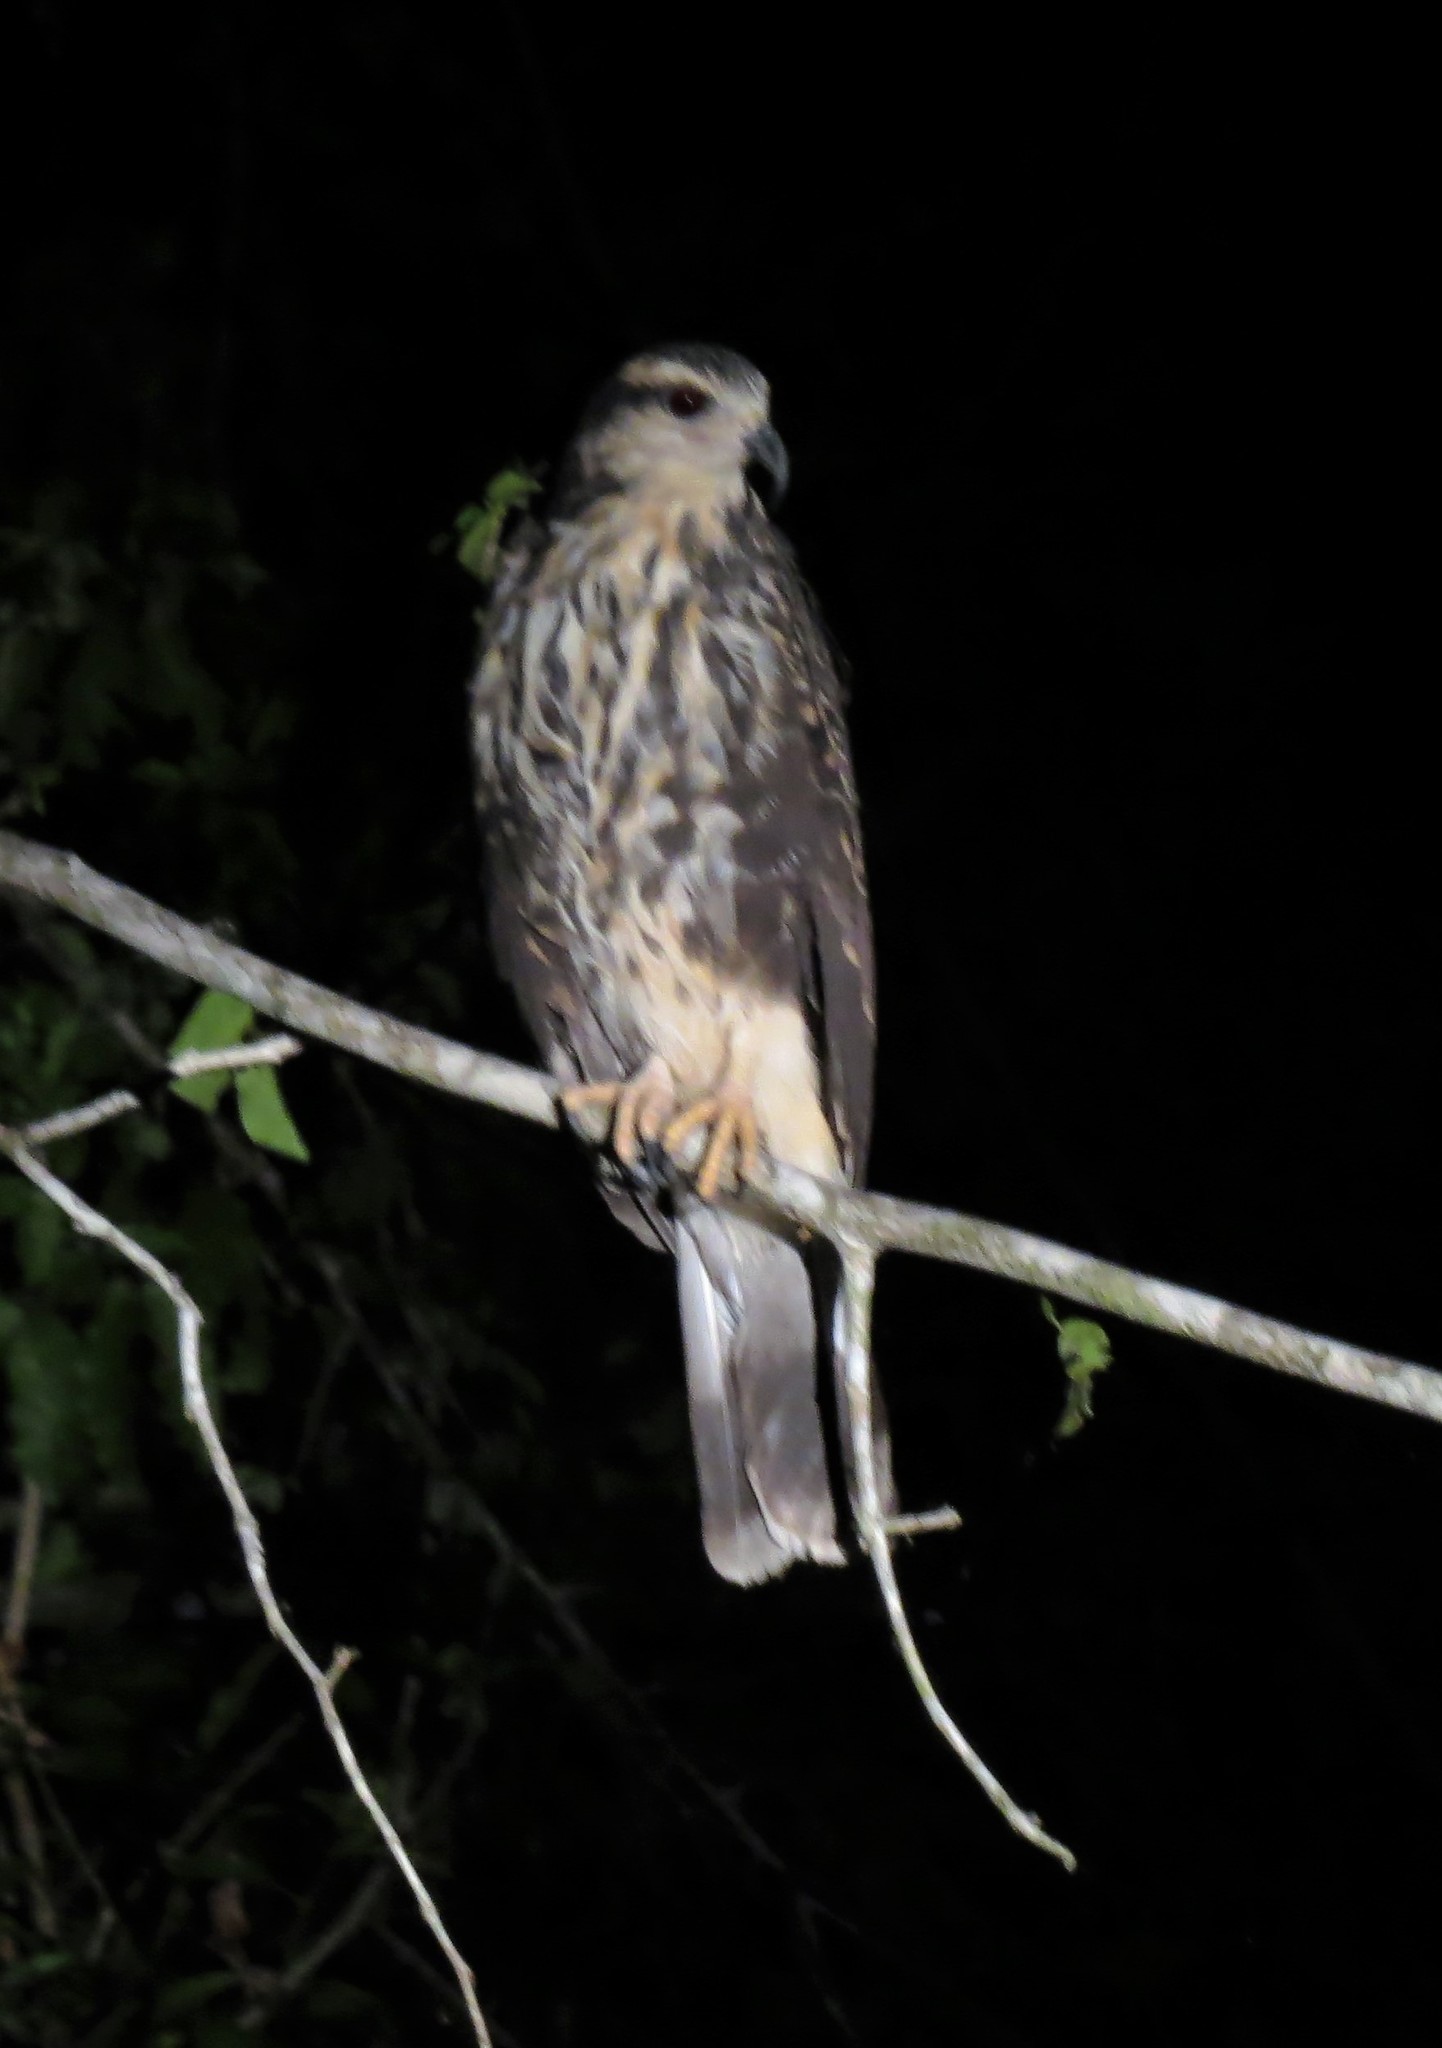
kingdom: Animalia
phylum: Chordata
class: Aves
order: Accipitriformes
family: Accipitridae
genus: Rostrhamus
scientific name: Rostrhamus sociabilis
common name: Snail kite
